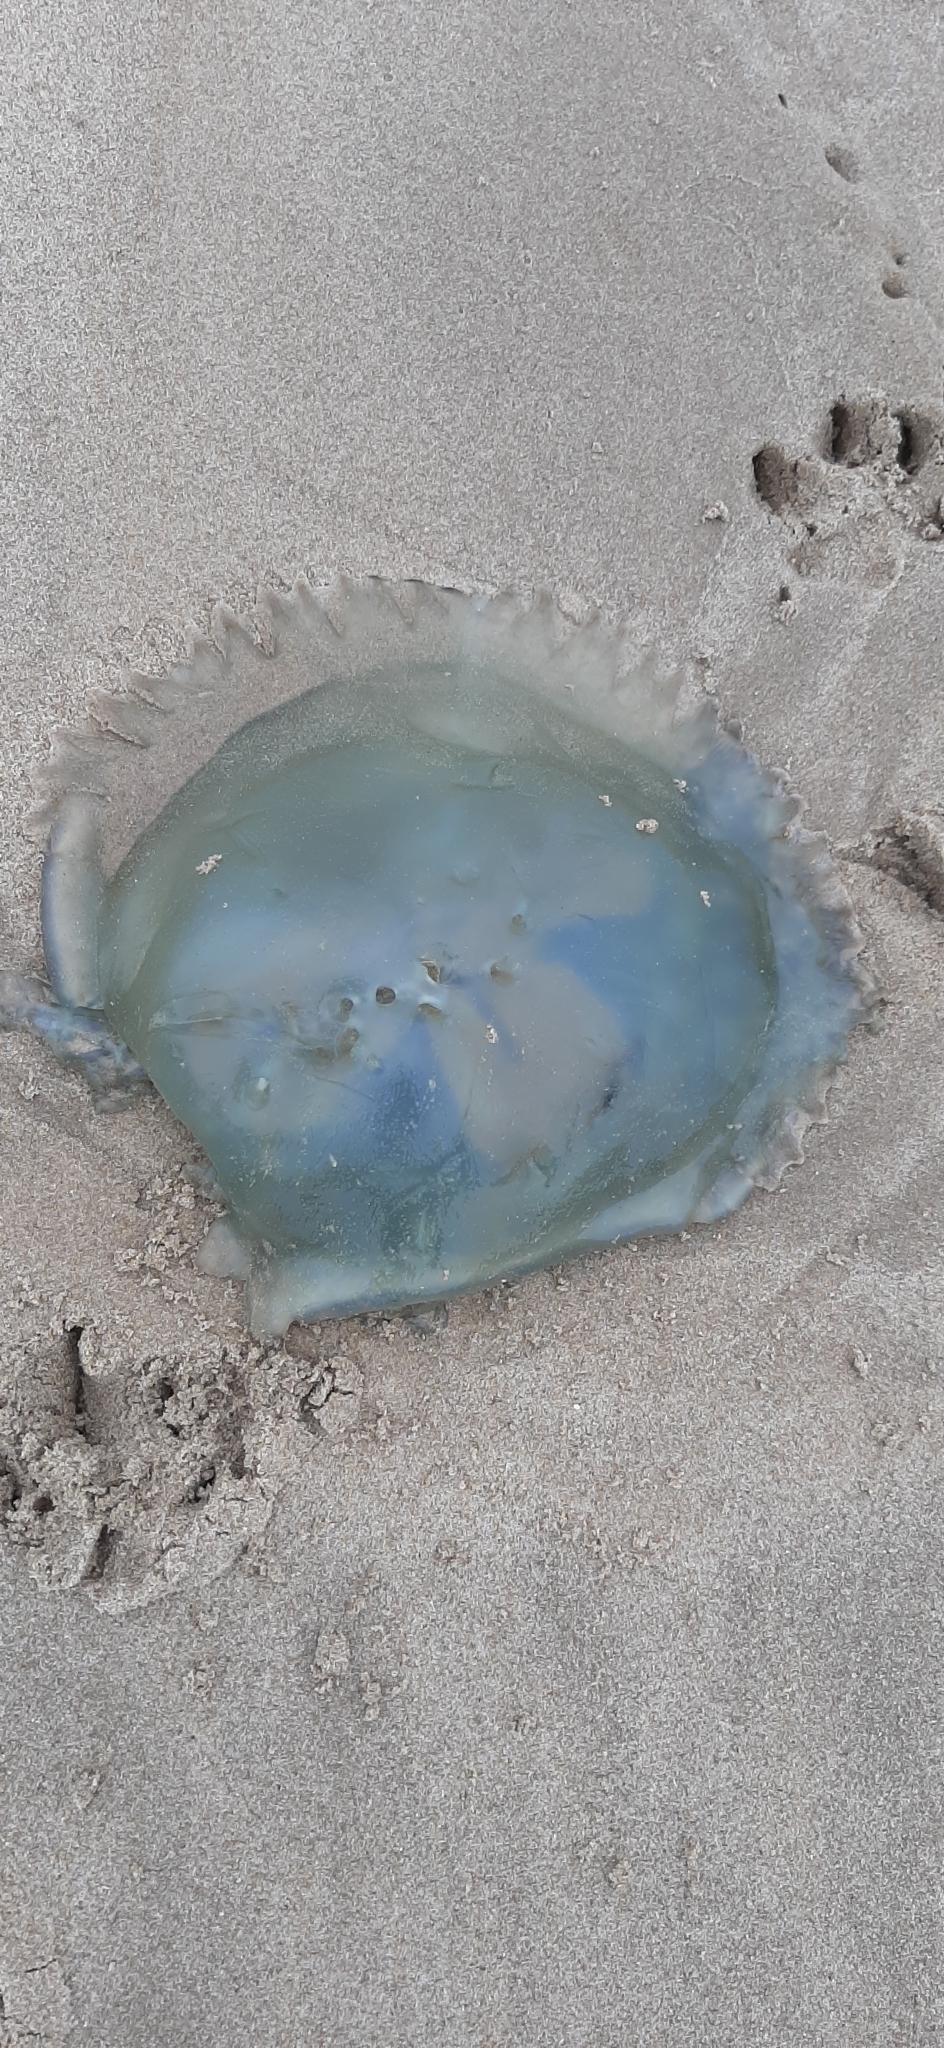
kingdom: Animalia
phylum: Cnidaria
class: Scyphozoa
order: Rhizostomeae
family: Catostylidae
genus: Catostylus
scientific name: Catostylus tagi
